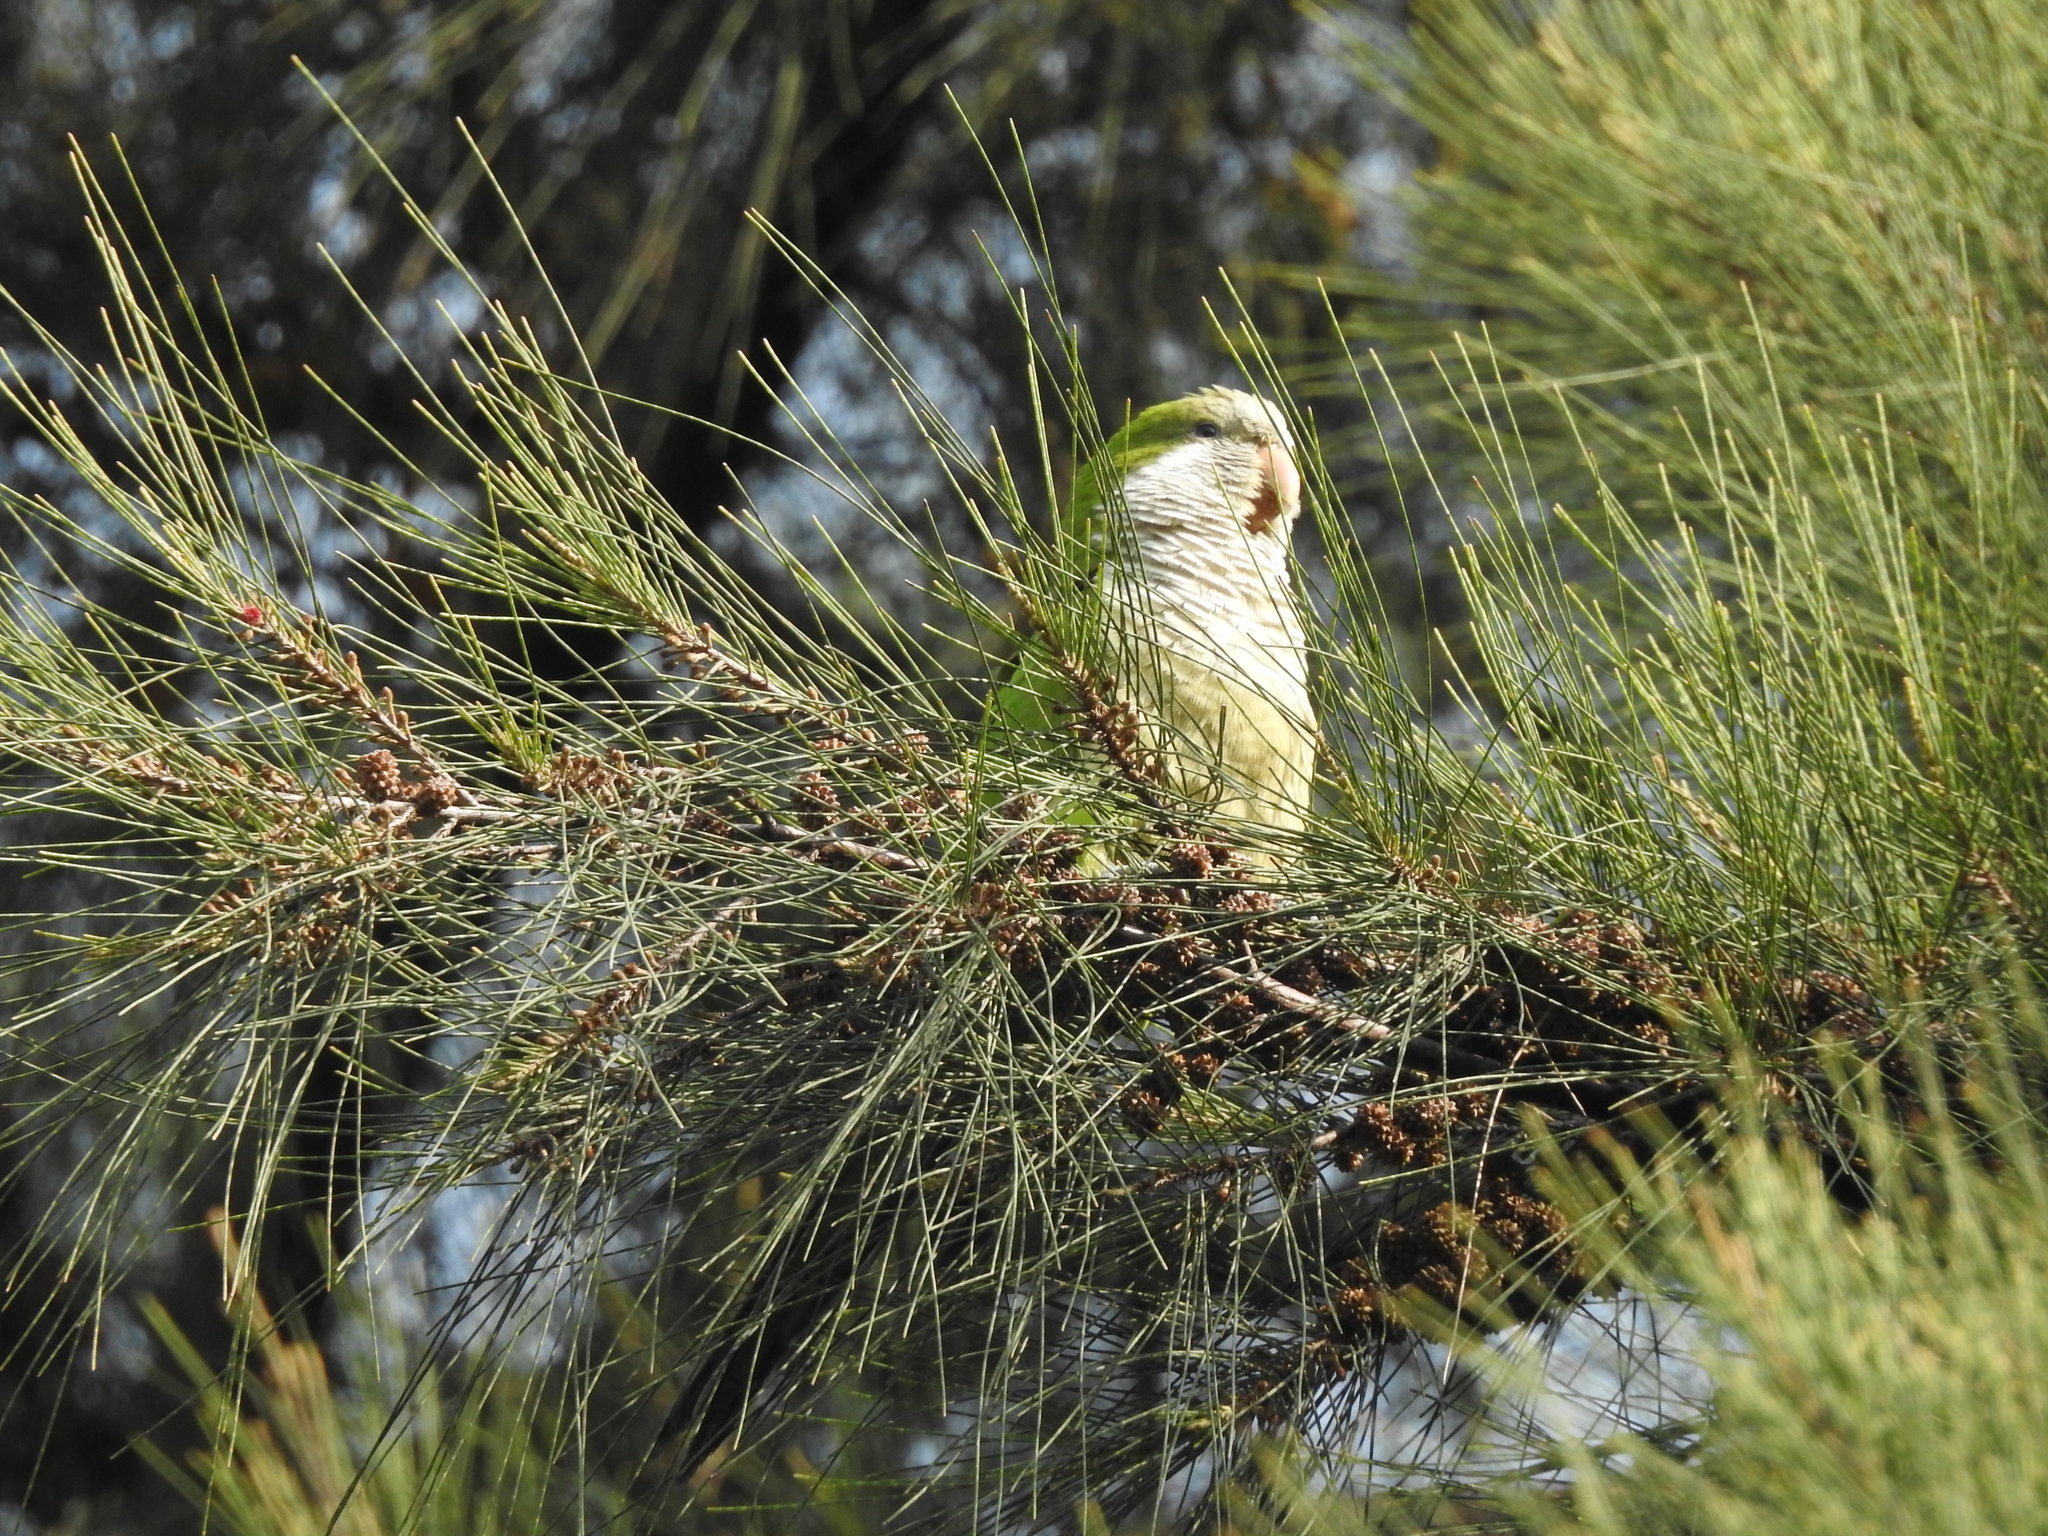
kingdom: Animalia
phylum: Chordata
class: Aves
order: Psittaciformes
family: Psittacidae
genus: Myiopsitta
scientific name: Myiopsitta monachus
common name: Monk parakeet
